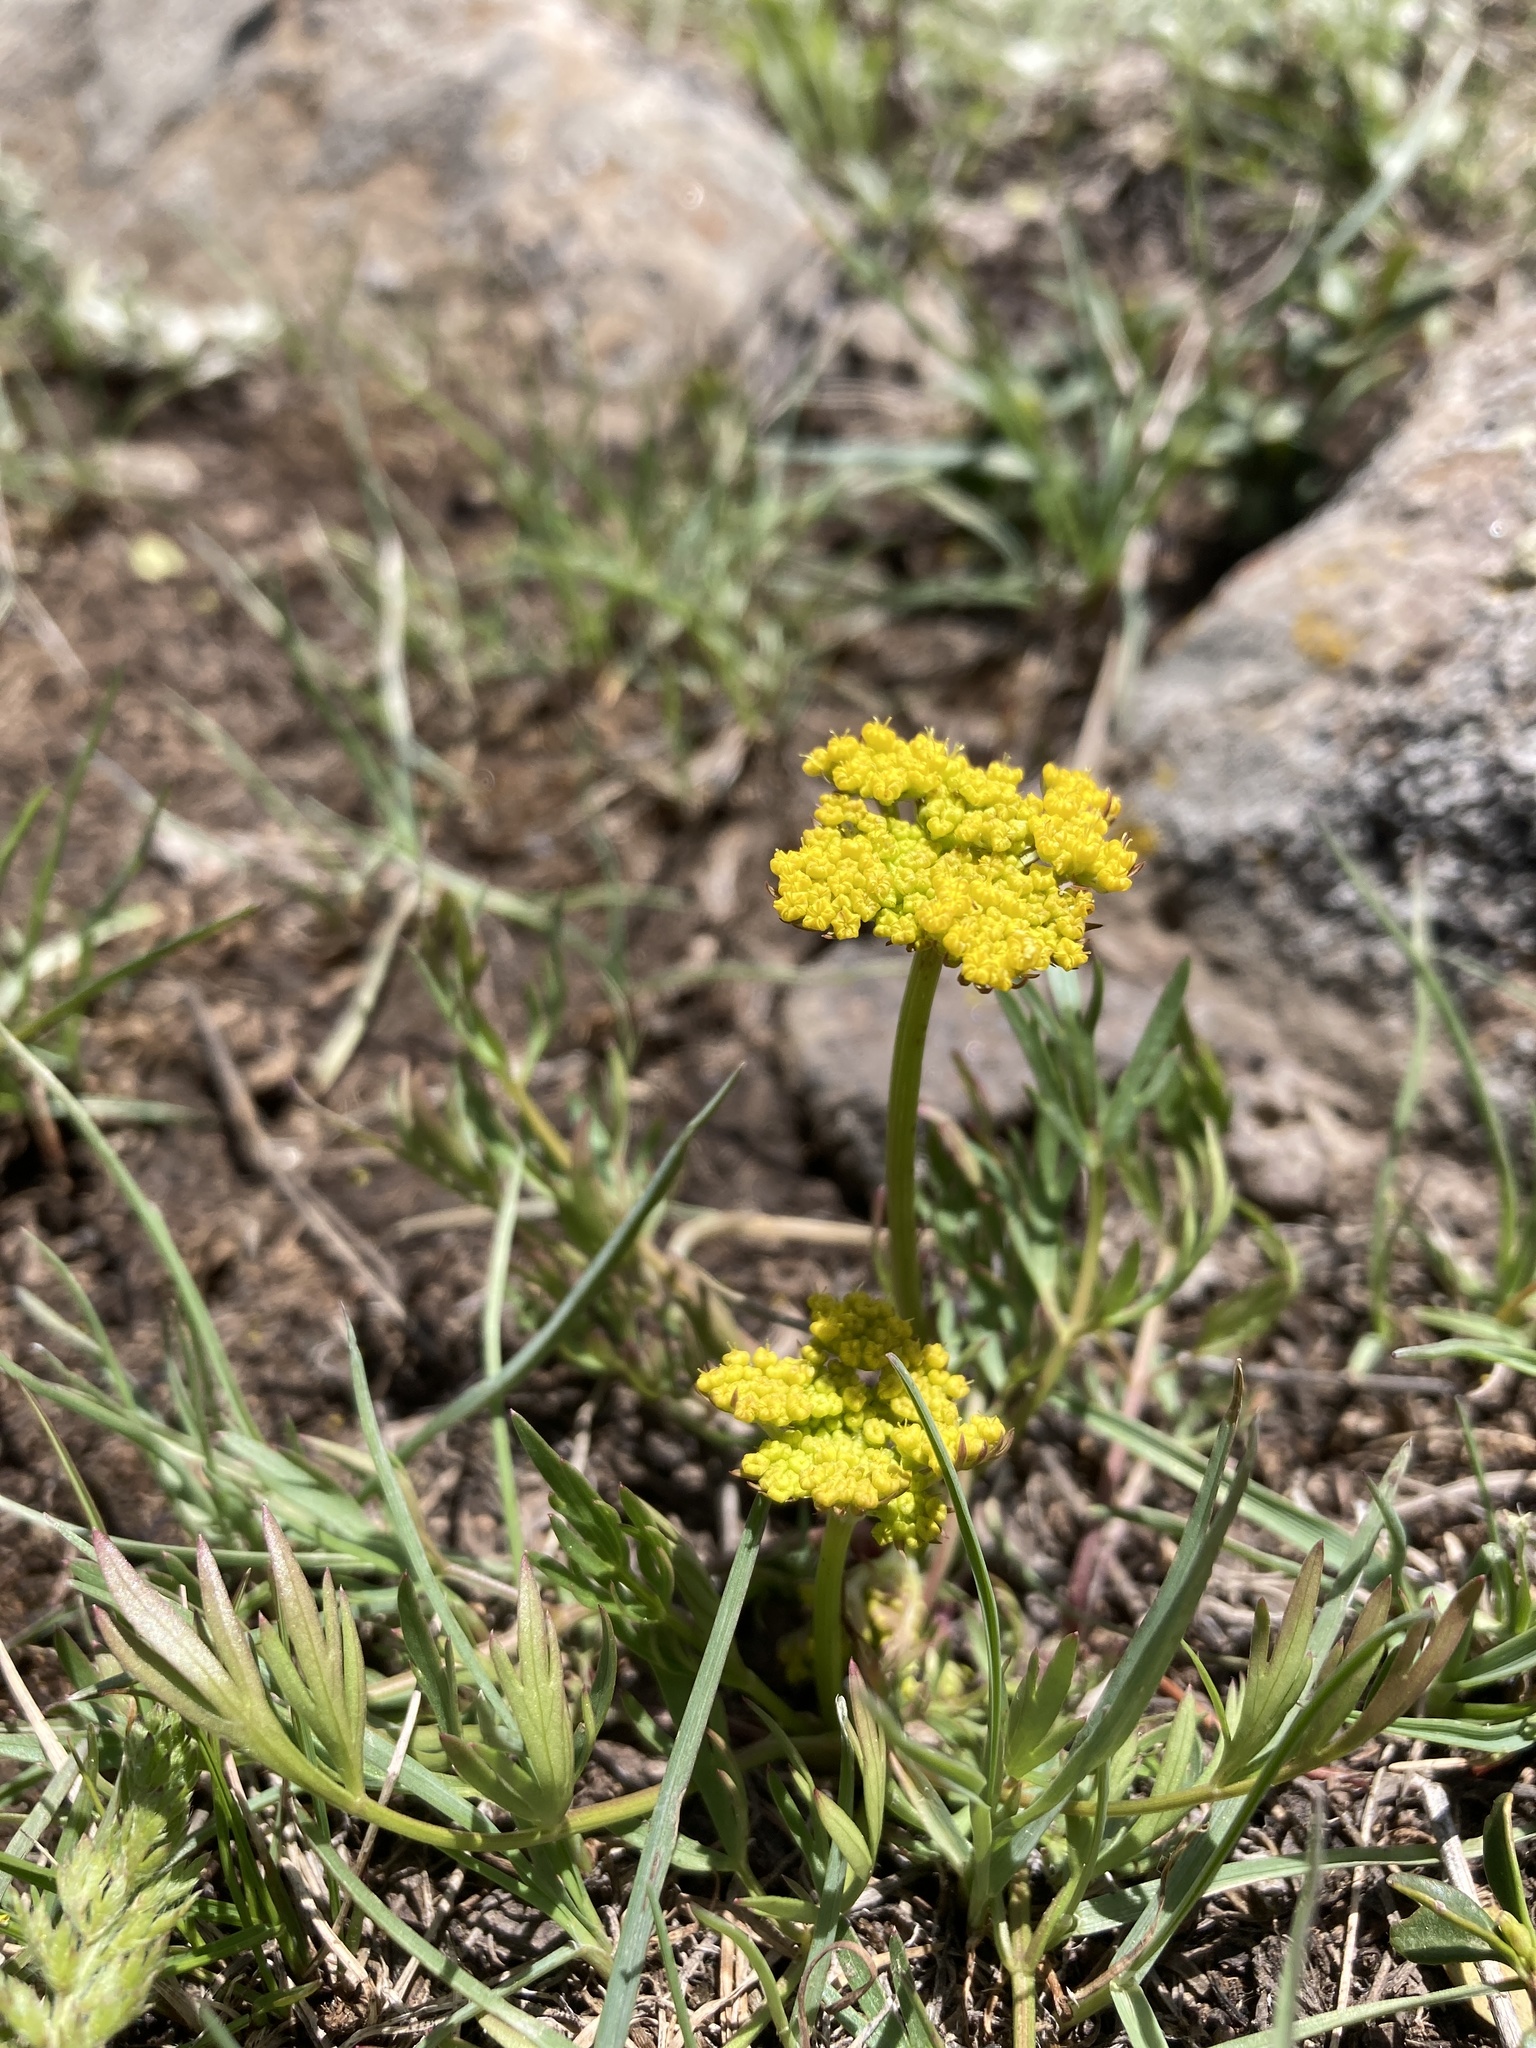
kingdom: Plantae
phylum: Tracheophyta
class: Magnoliopsida
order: Apiales
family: Apiaceae
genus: Cymopterus
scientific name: Cymopterus lemmonii
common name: Lemmon's spring-parsley
